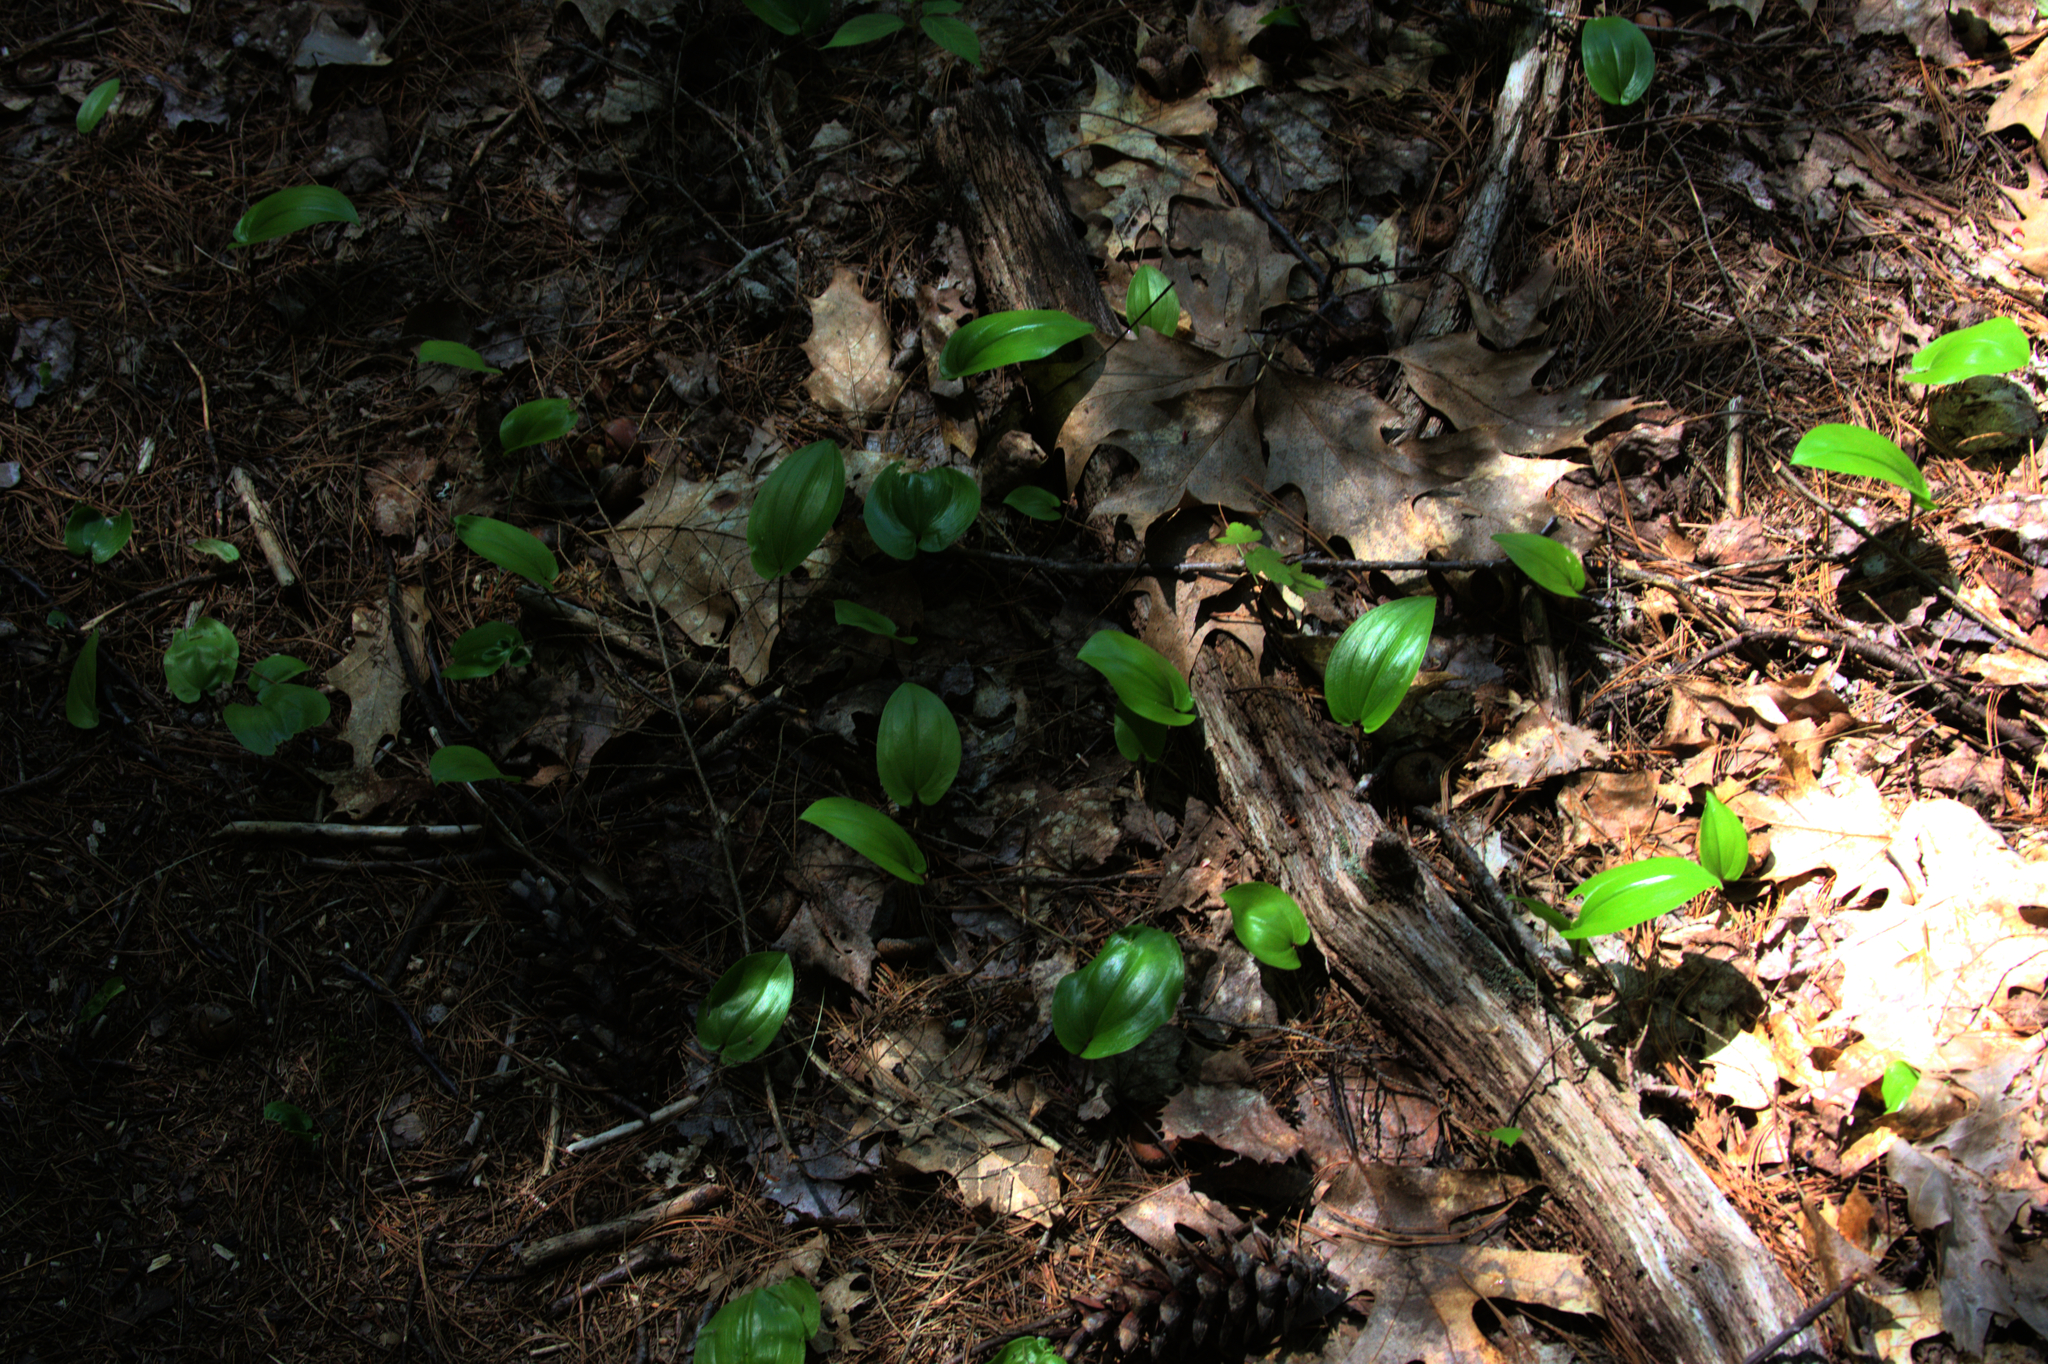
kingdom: Plantae
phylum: Tracheophyta
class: Liliopsida
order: Asparagales
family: Asparagaceae
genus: Maianthemum
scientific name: Maianthemum canadense
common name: False lily-of-the-valley
